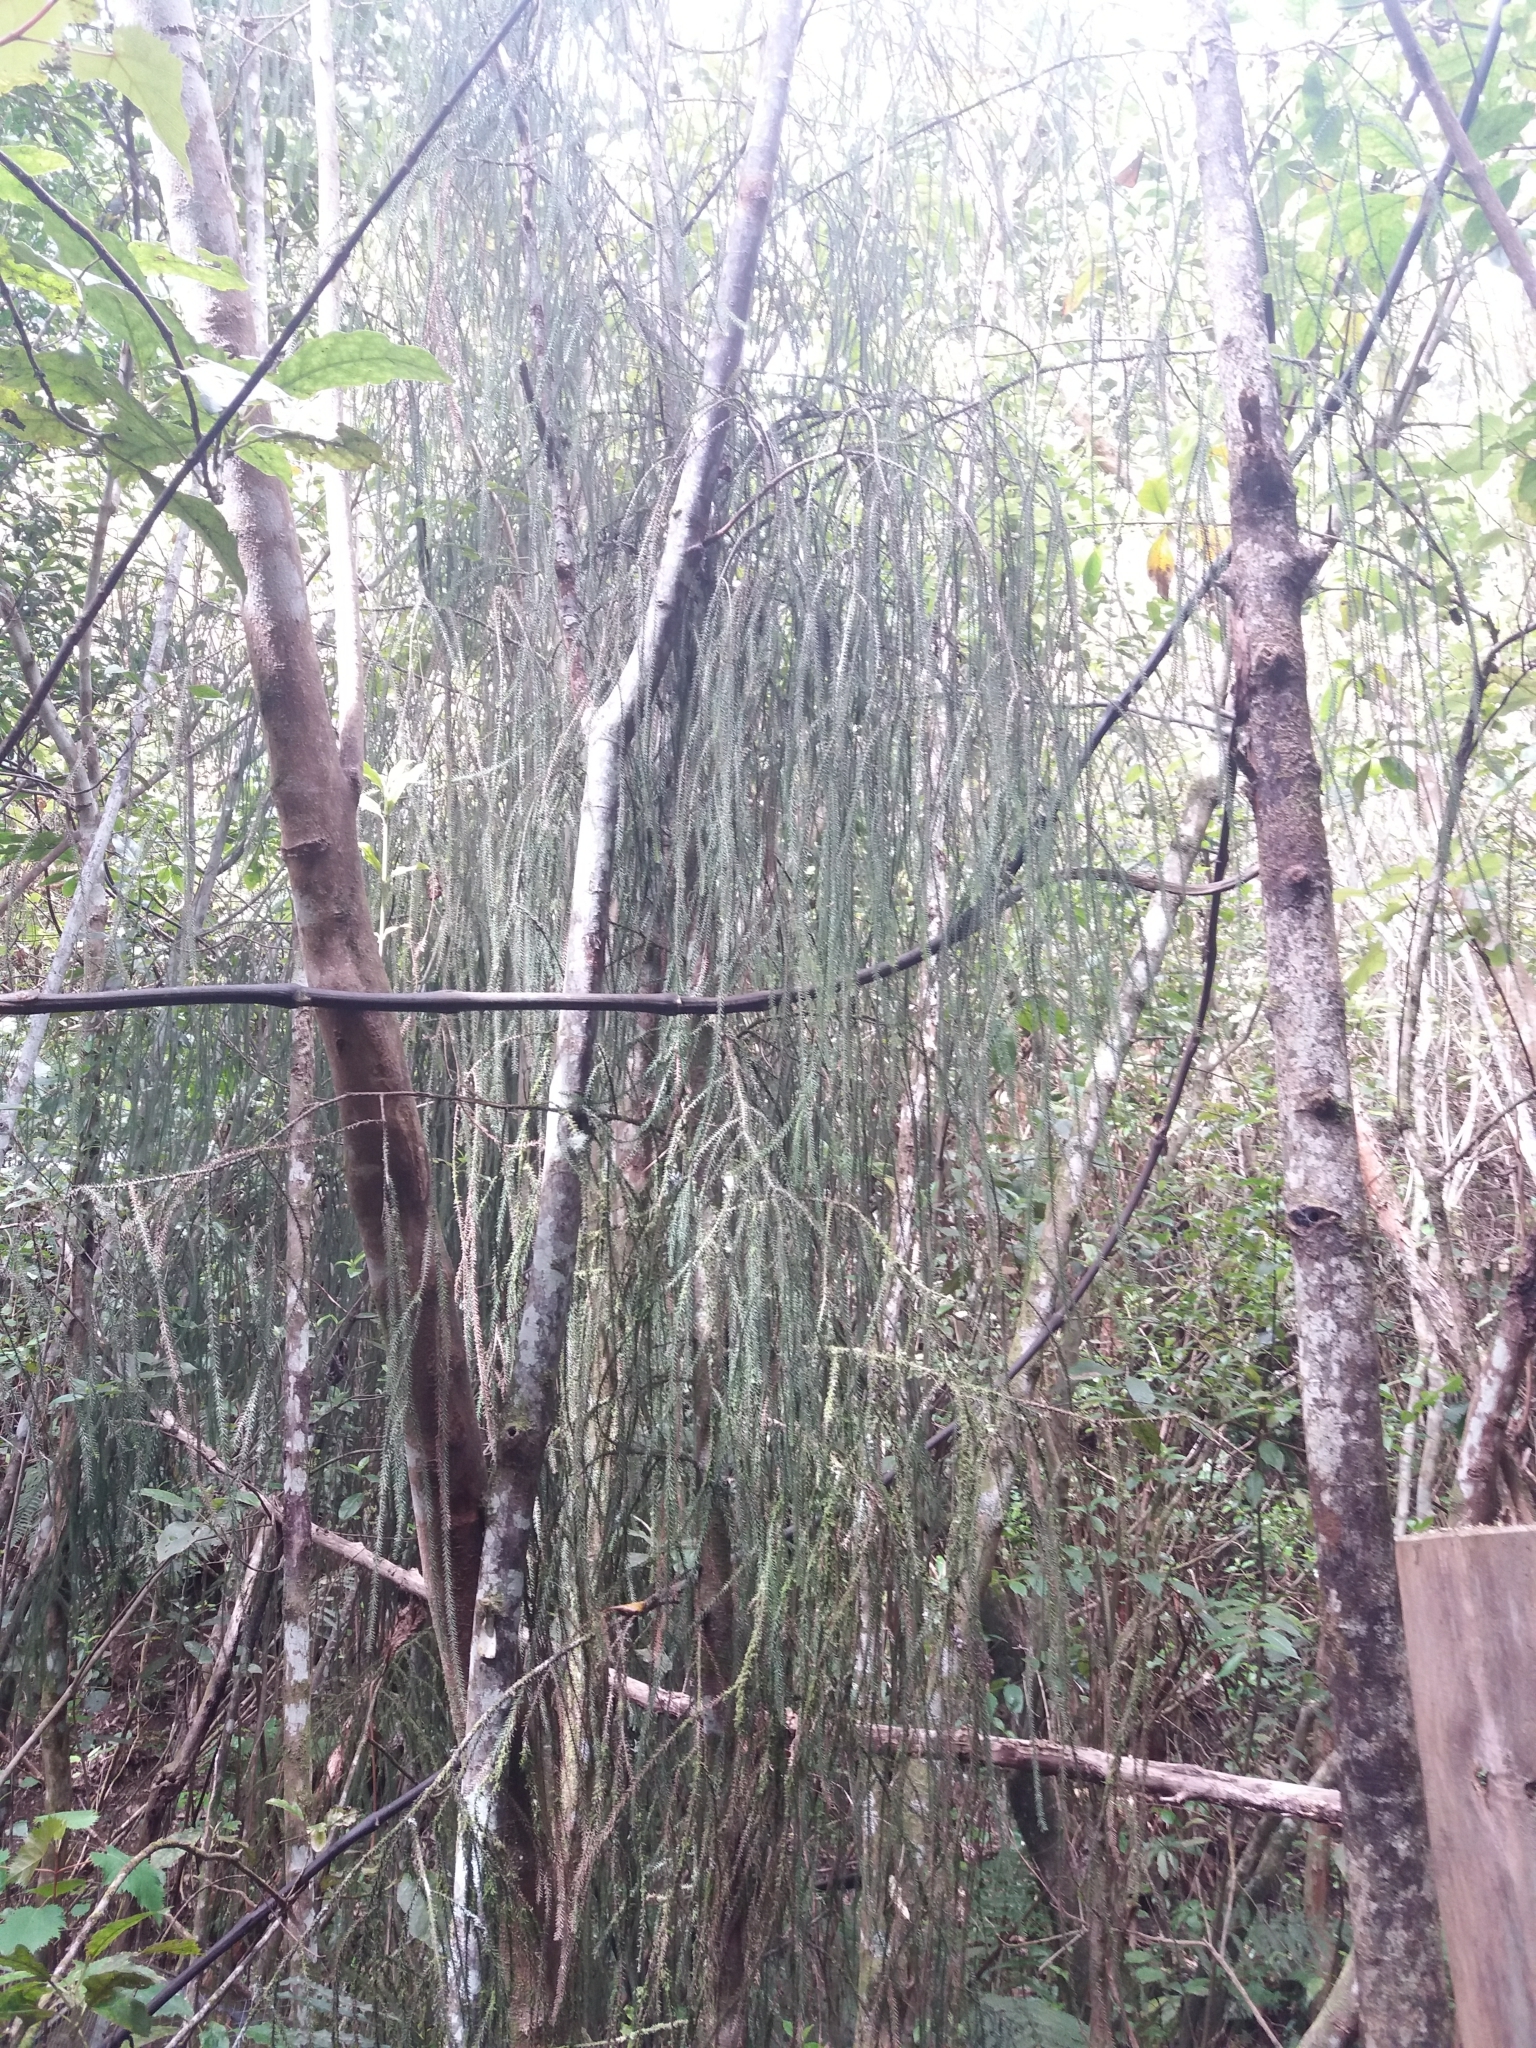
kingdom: Plantae
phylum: Tracheophyta
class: Pinopsida
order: Pinales
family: Podocarpaceae
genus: Dacrydium
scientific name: Dacrydium cupressinum
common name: Red pine
